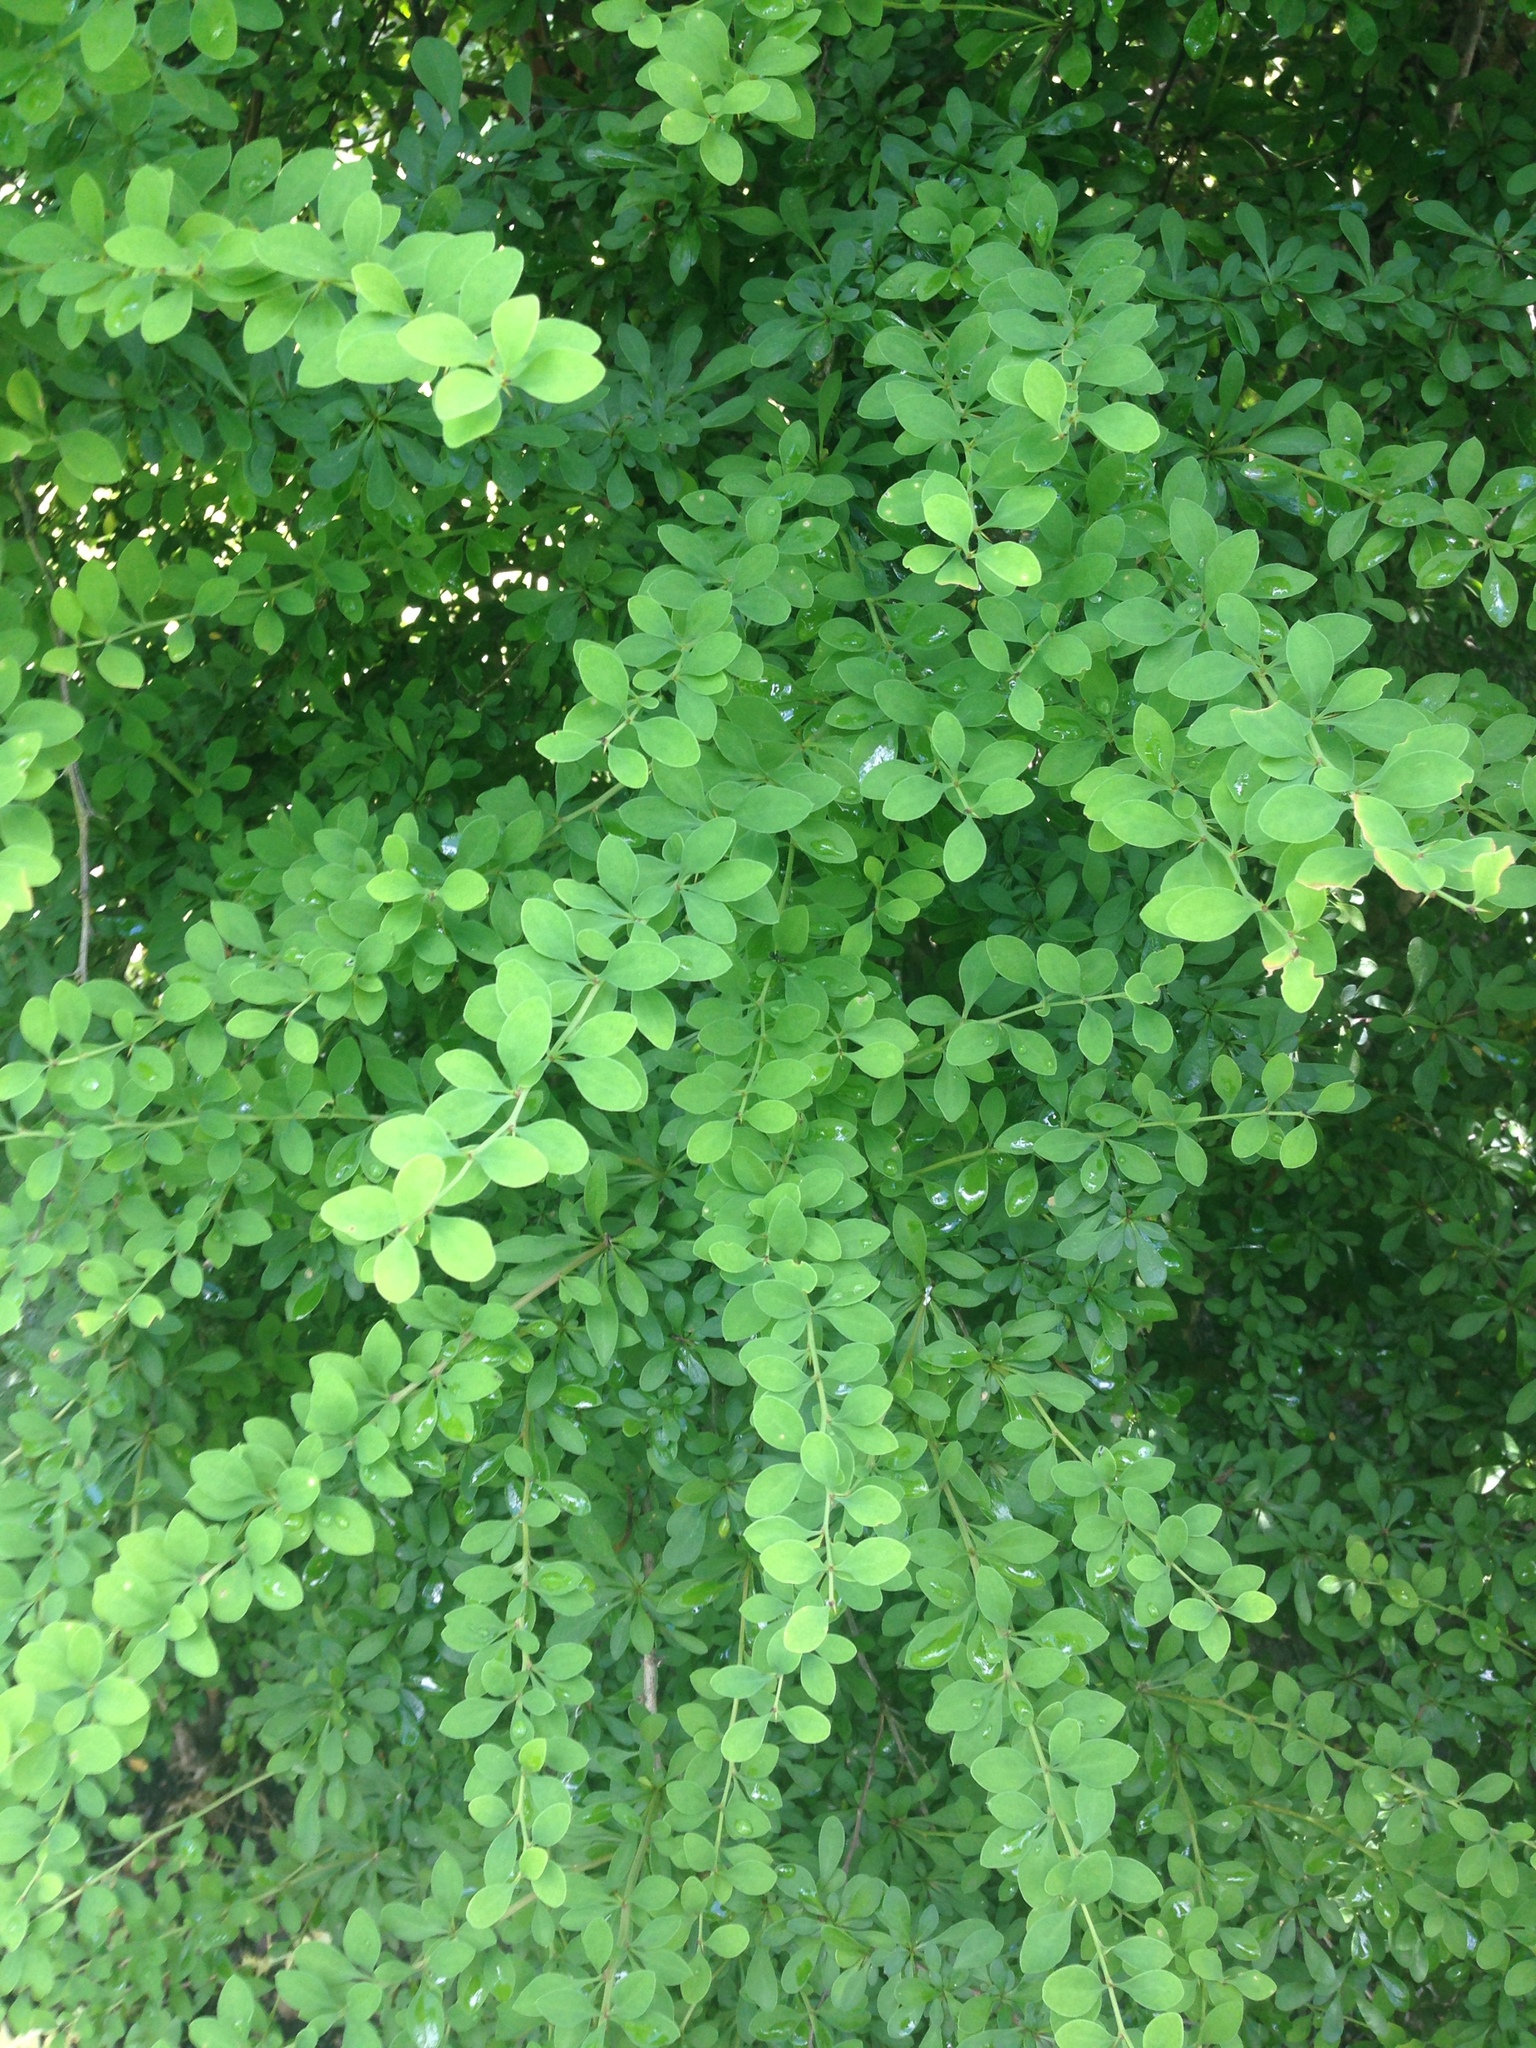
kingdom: Plantae
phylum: Tracheophyta
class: Magnoliopsida
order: Ranunculales
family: Berberidaceae
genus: Berberis
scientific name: Berberis thunbergii
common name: Japanese barberry
